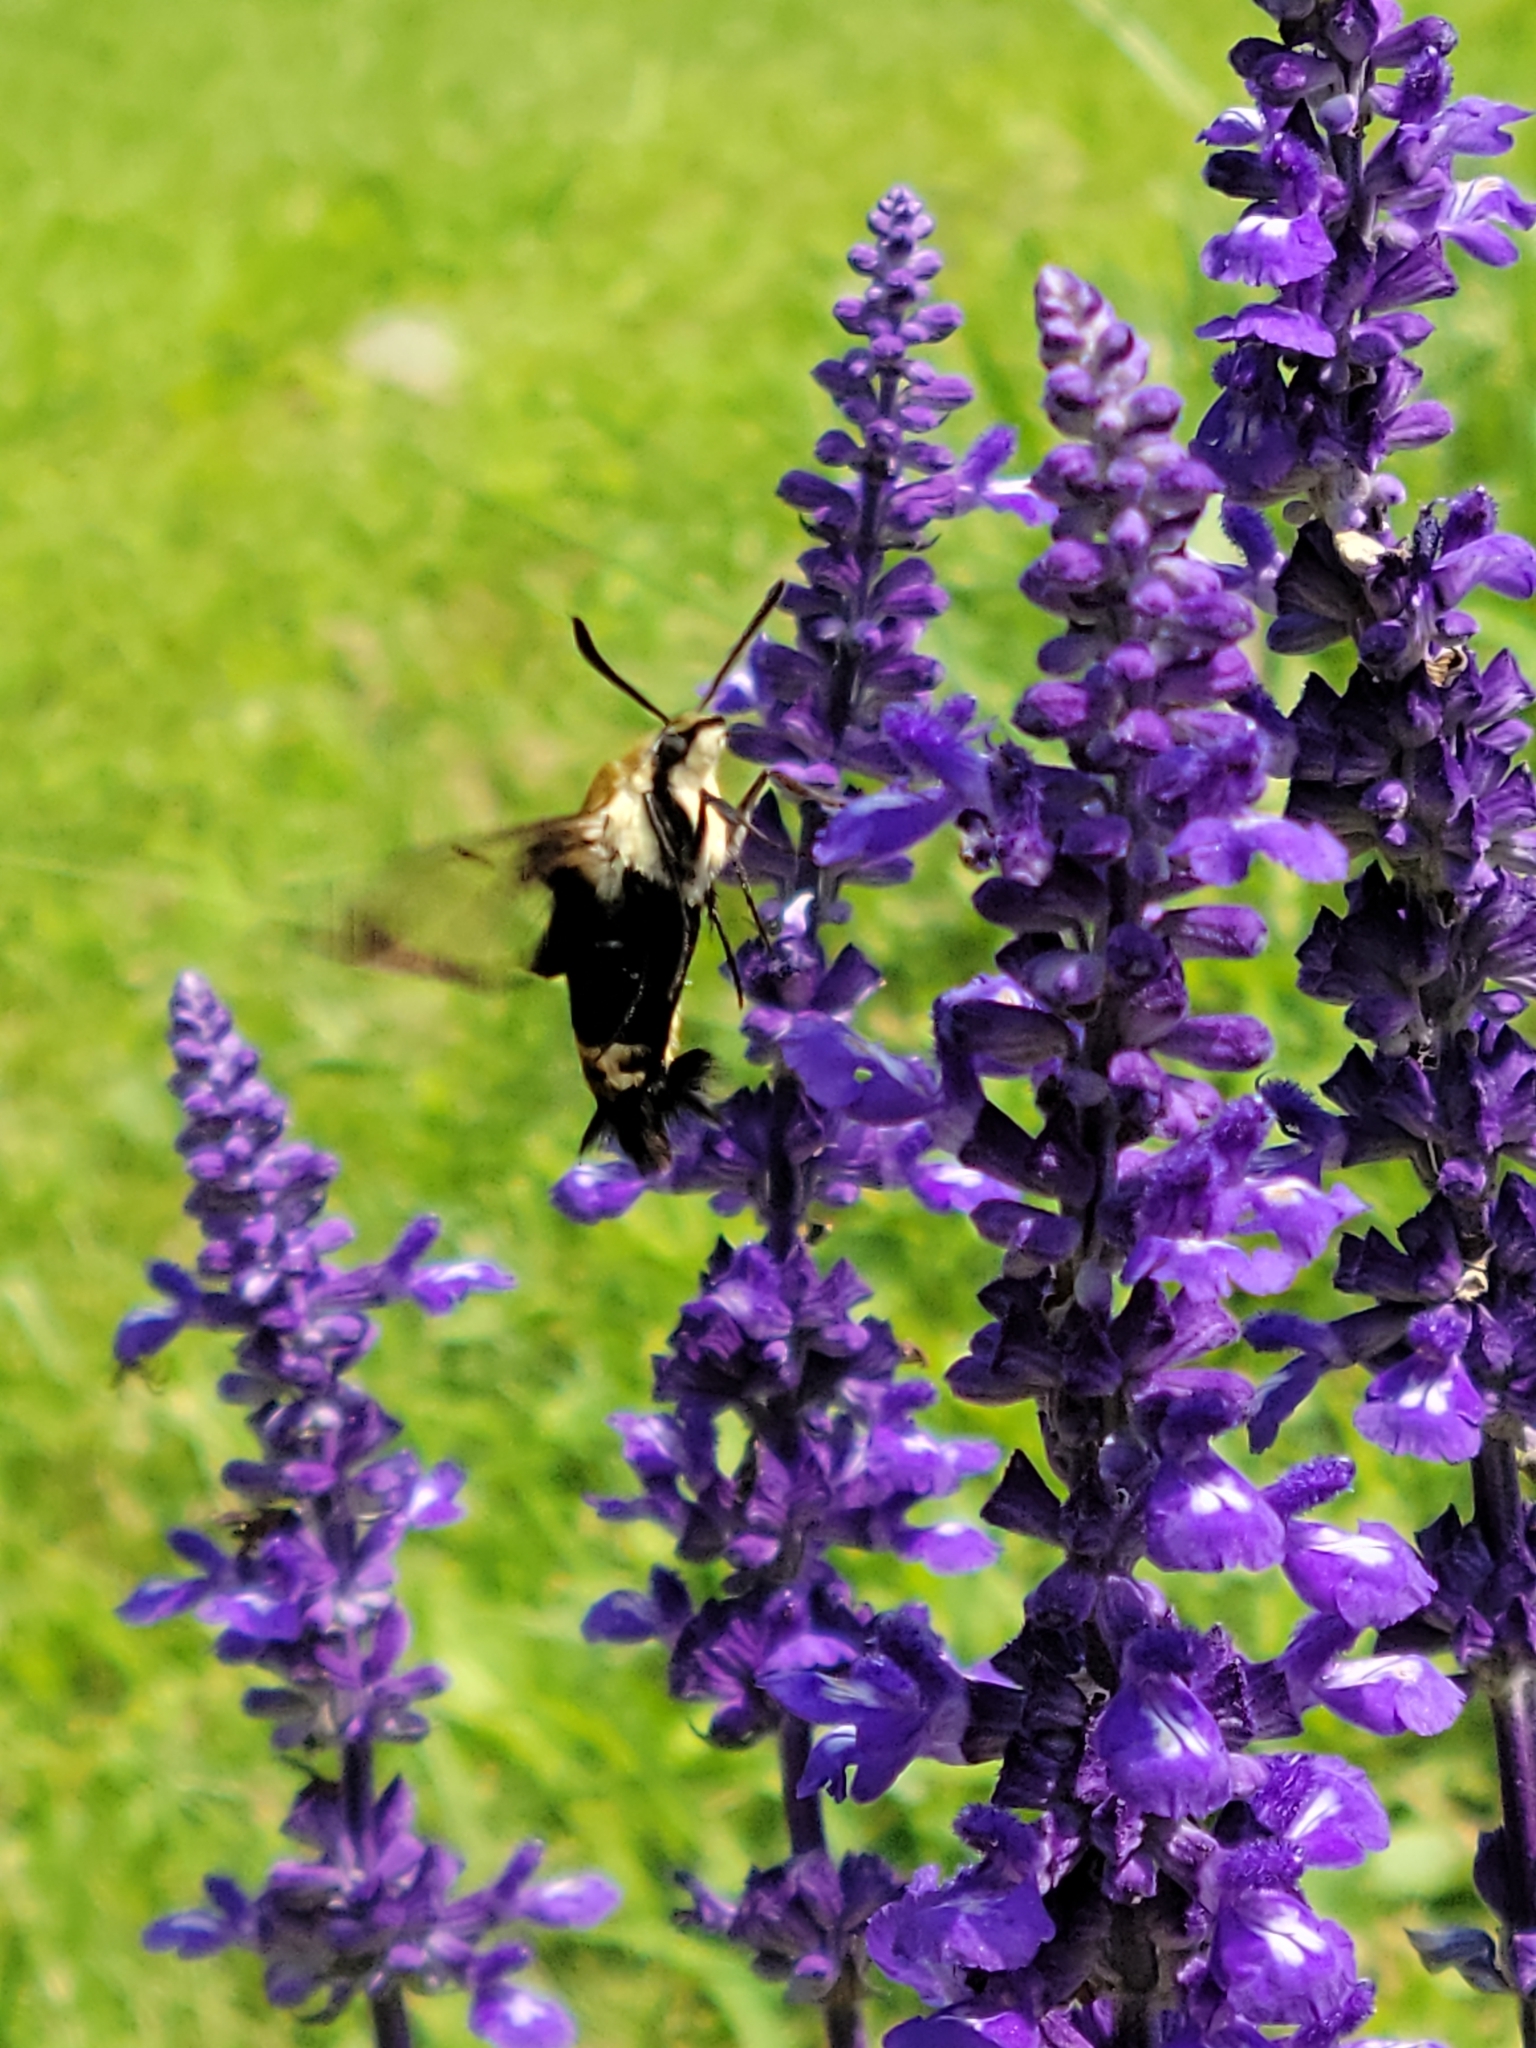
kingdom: Animalia
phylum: Arthropoda
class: Insecta
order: Lepidoptera
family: Sphingidae
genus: Hemaris
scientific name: Hemaris diffinis
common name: Bumblebee moth
